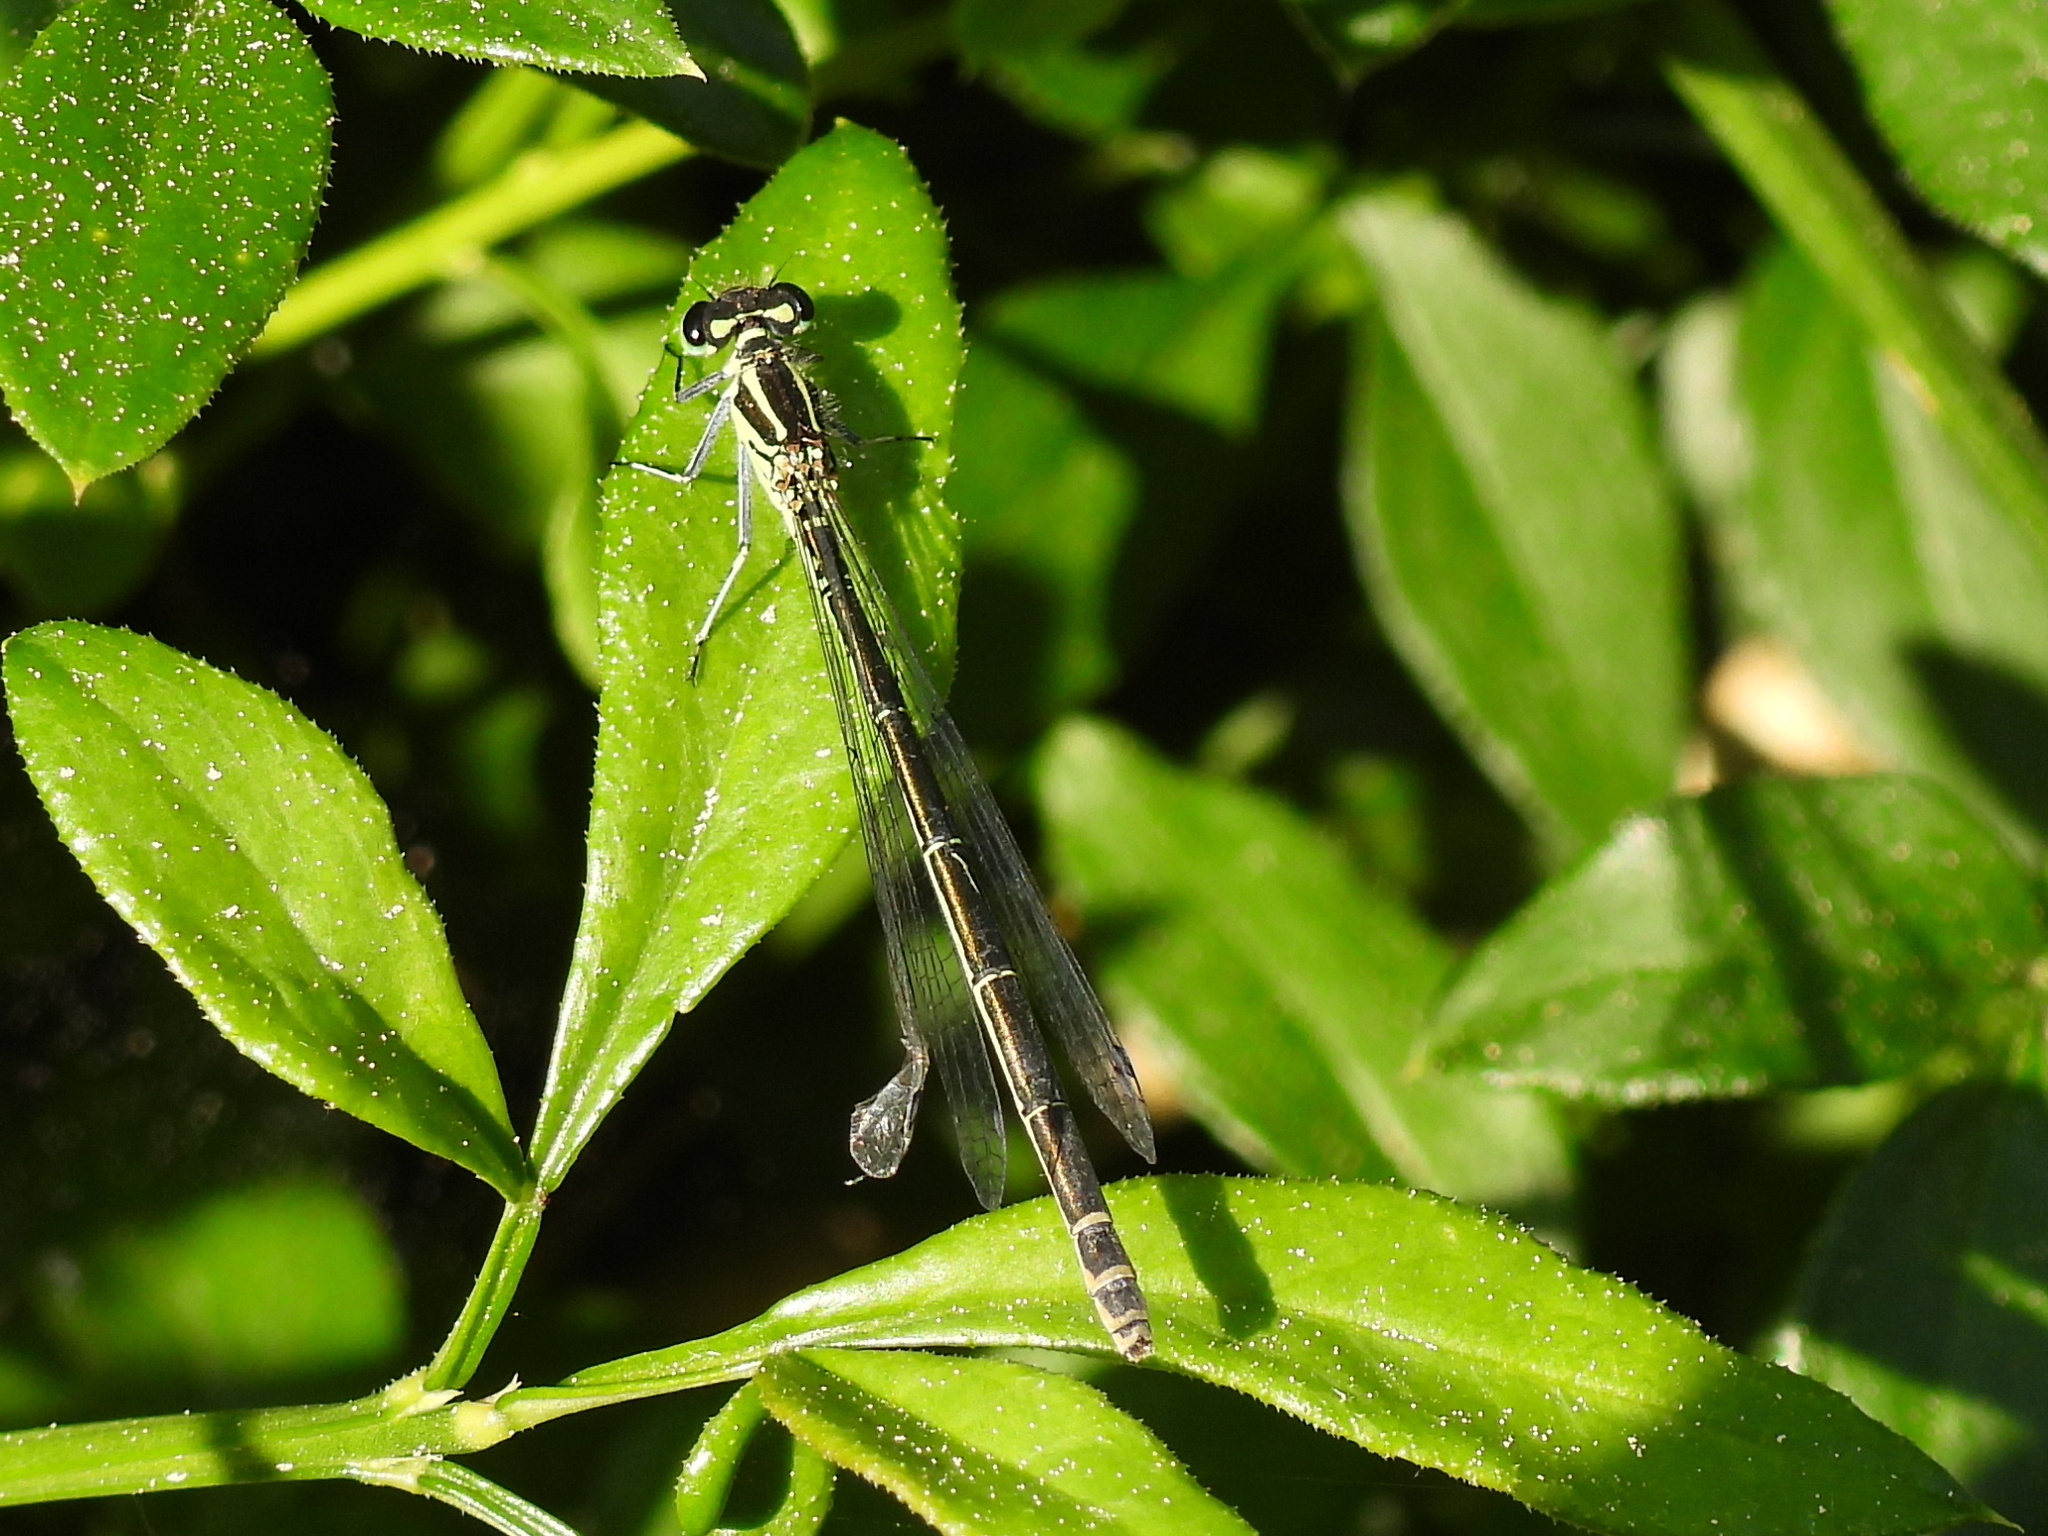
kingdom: Animalia
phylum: Arthropoda
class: Insecta
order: Odonata
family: Coenagrionidae
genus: Coenagrion
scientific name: Coenagrion puella
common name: Azure damselfly
